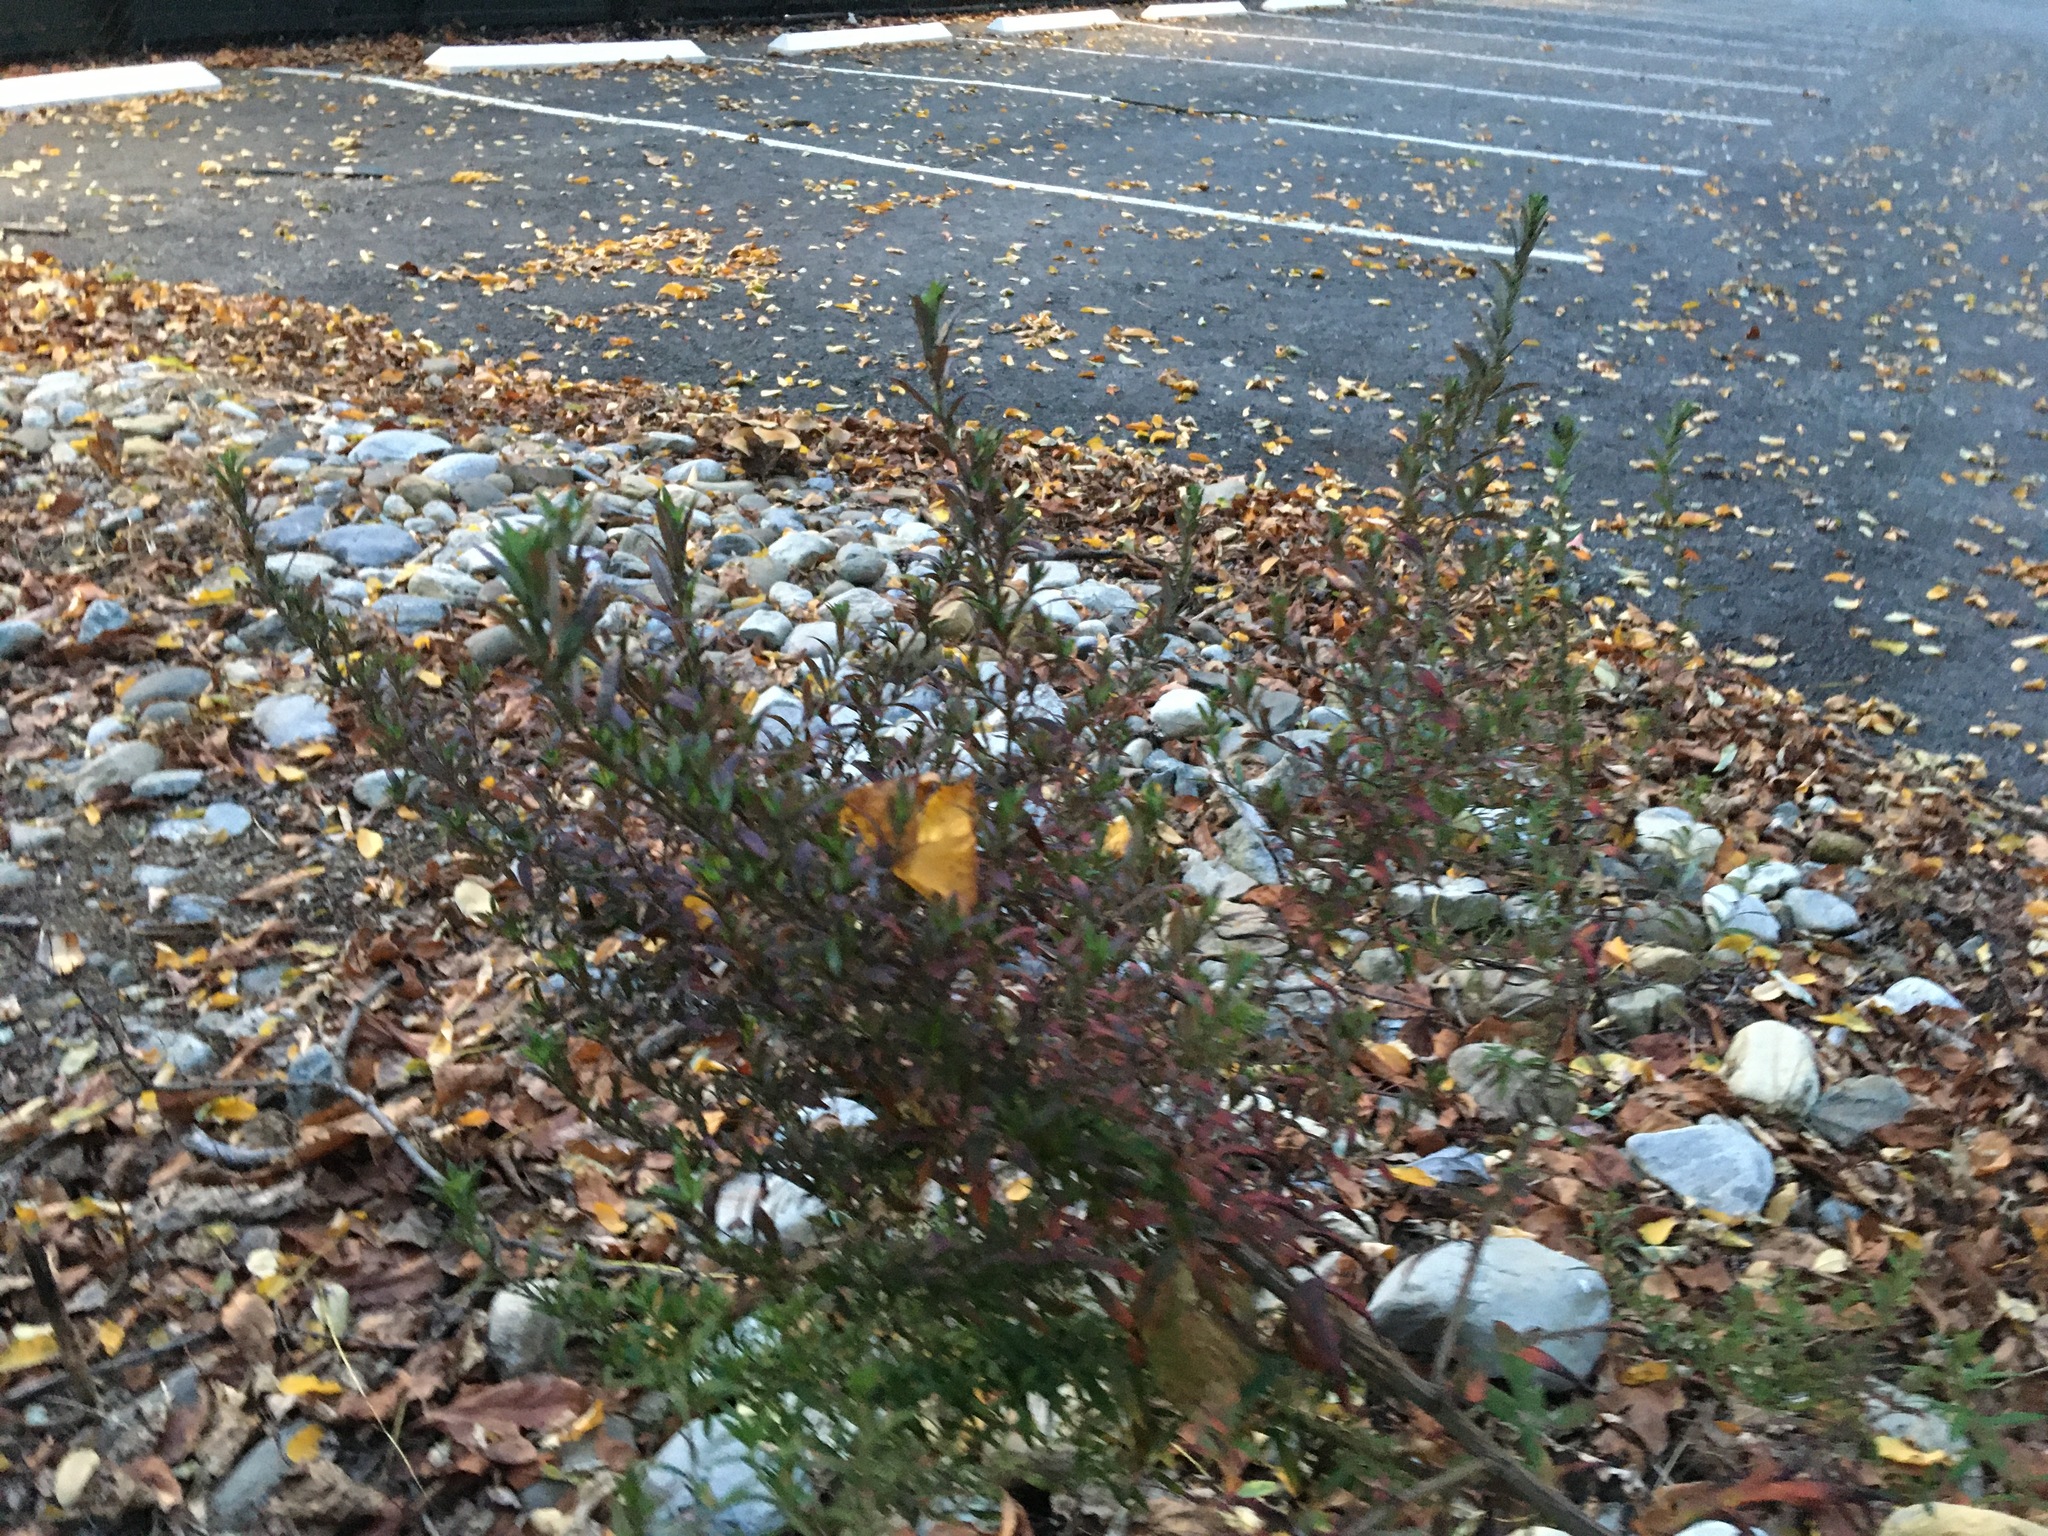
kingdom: Plantae
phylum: Tracheophyta
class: Magnoliopsida
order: Asterales
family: Asteraceae
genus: Artemisia
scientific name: Artemisia vulgaris
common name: Mugwort
